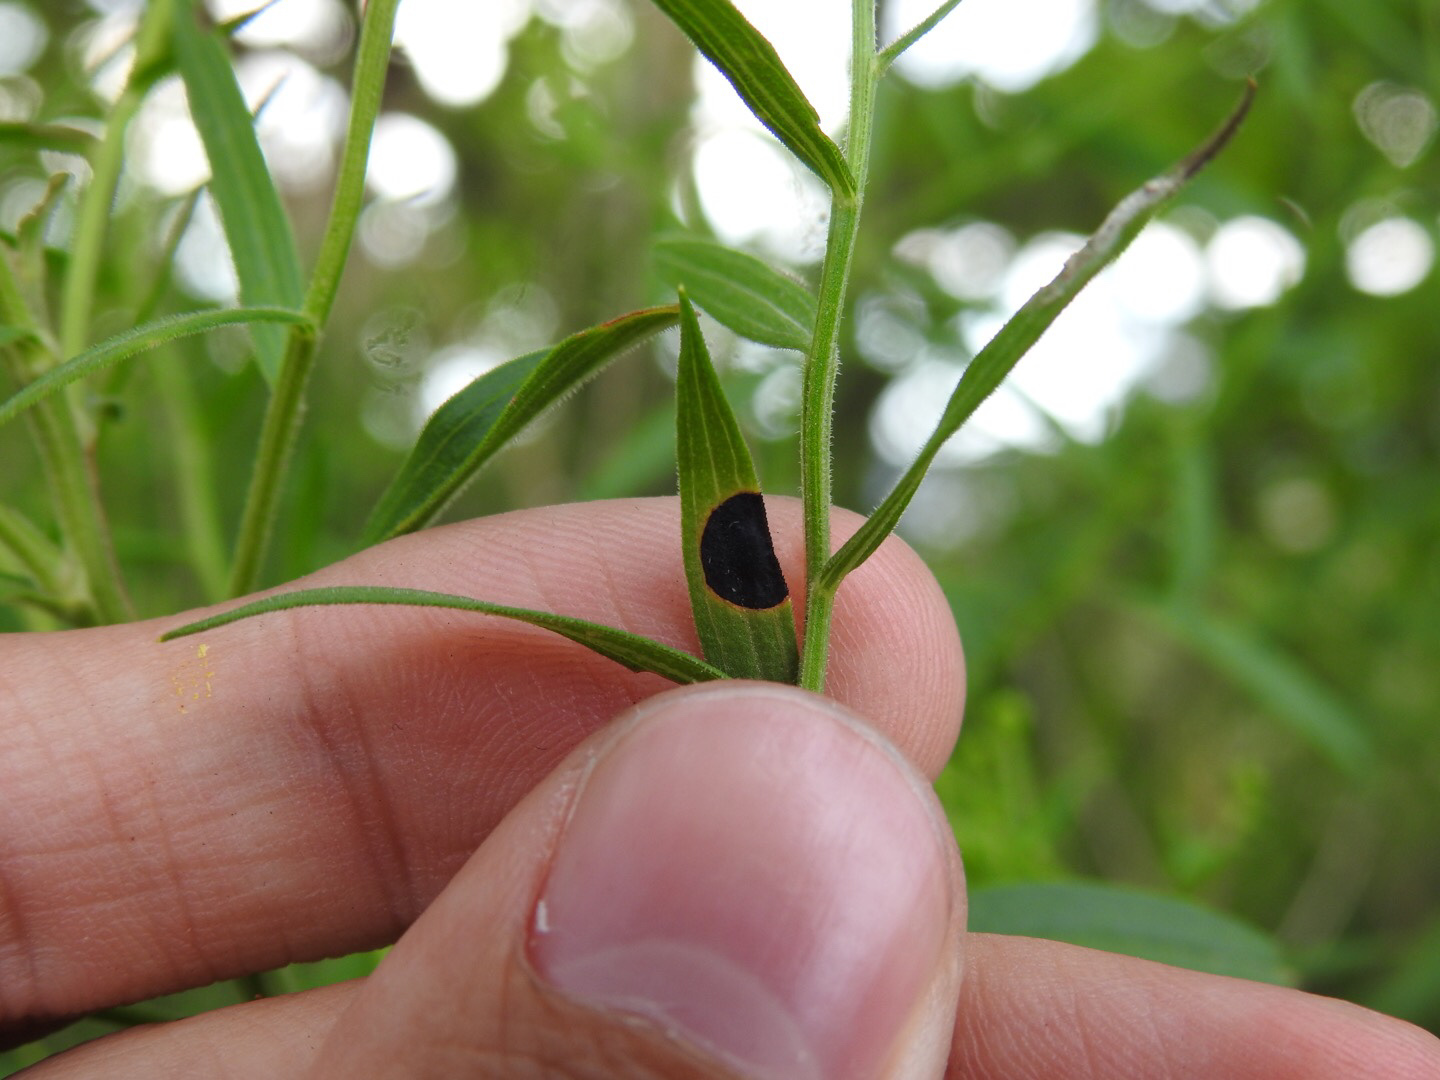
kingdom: Animalia
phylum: Arthropoda
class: Insecta
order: Diptera
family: Cecidomyiidae
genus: Asteromyia
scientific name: Asteromyia euthamiae
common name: Euthamia leaf gall midge
